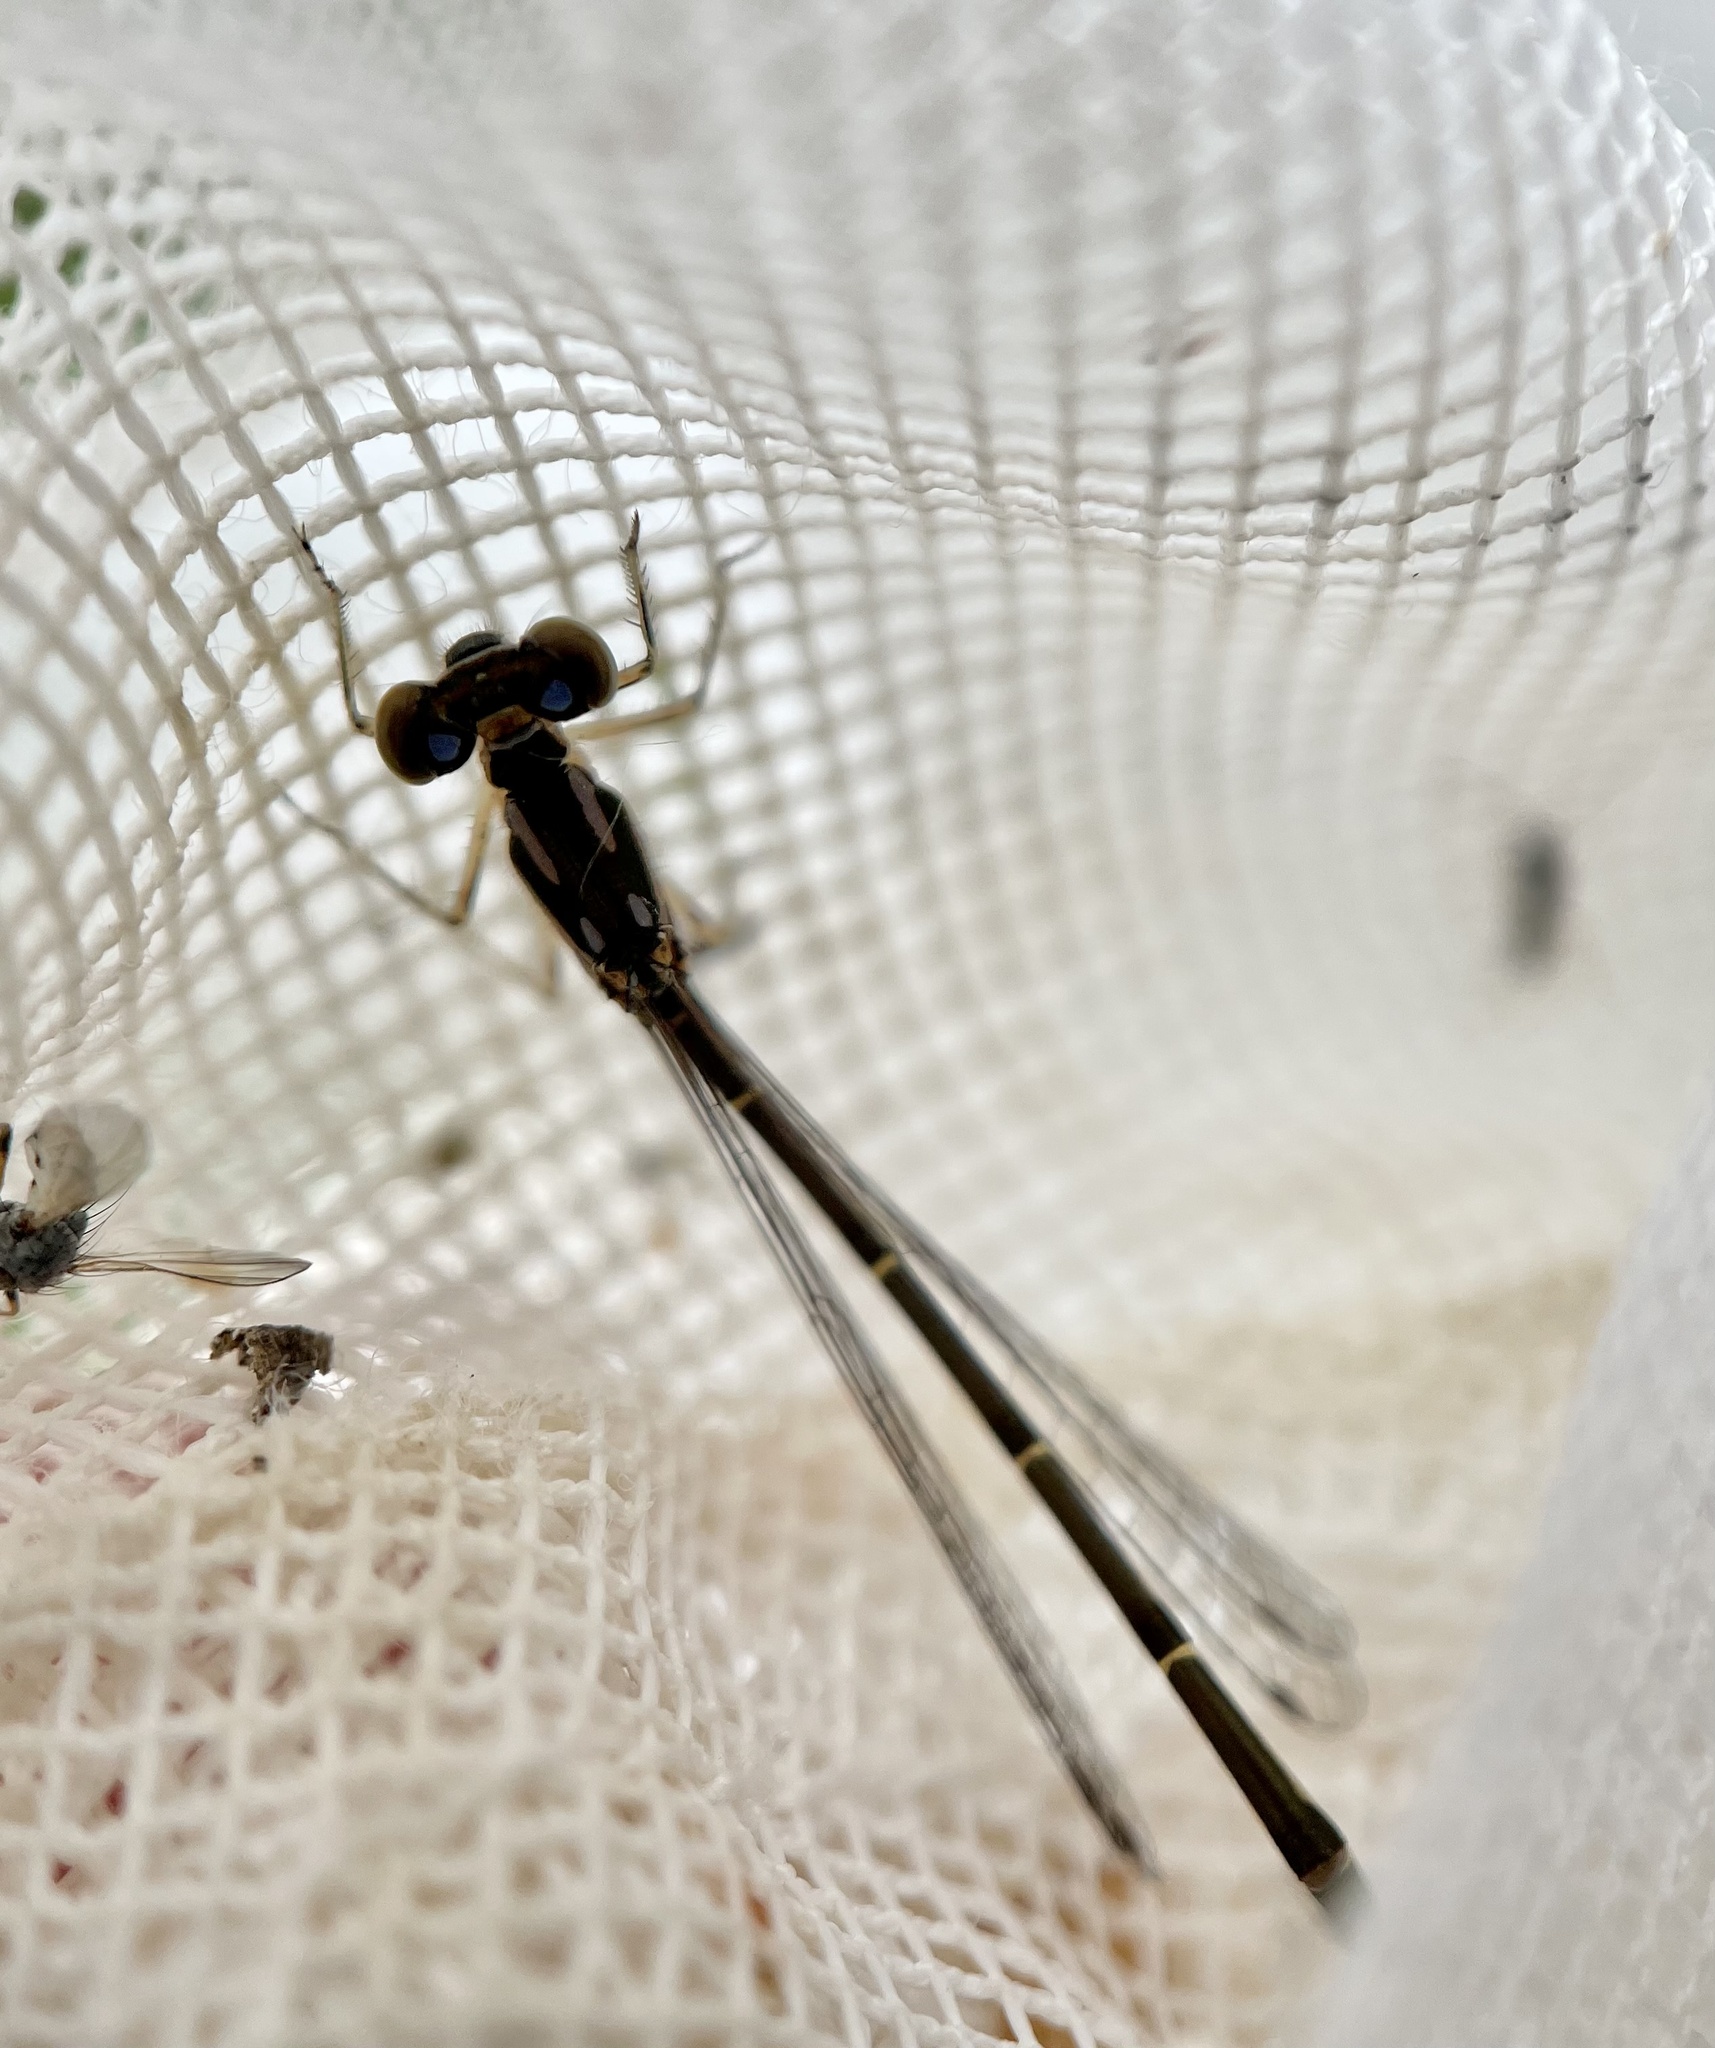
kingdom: Animalia
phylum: Arthropoda
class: Insecta
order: Odonata
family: Coenagrionidae
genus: Ischnura
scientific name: Ischnura posita
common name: Fragile forktail
